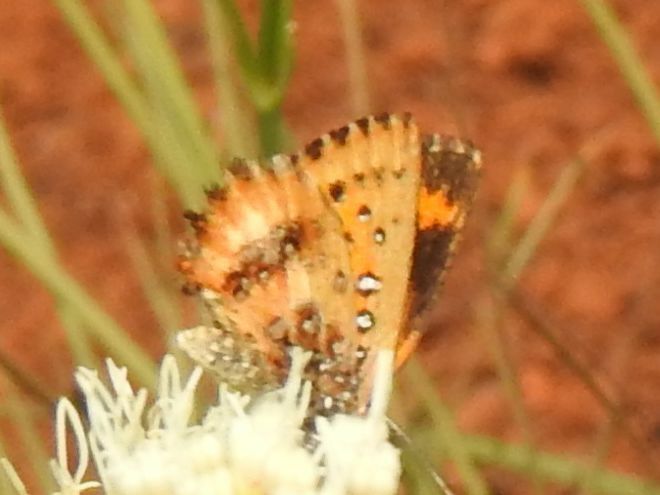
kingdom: Animalia
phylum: Arthropoda
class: Insecta
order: Lepidoptera
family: Lycaenidae
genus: Aloeides
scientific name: Aloeides molomo
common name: Mottled russet
